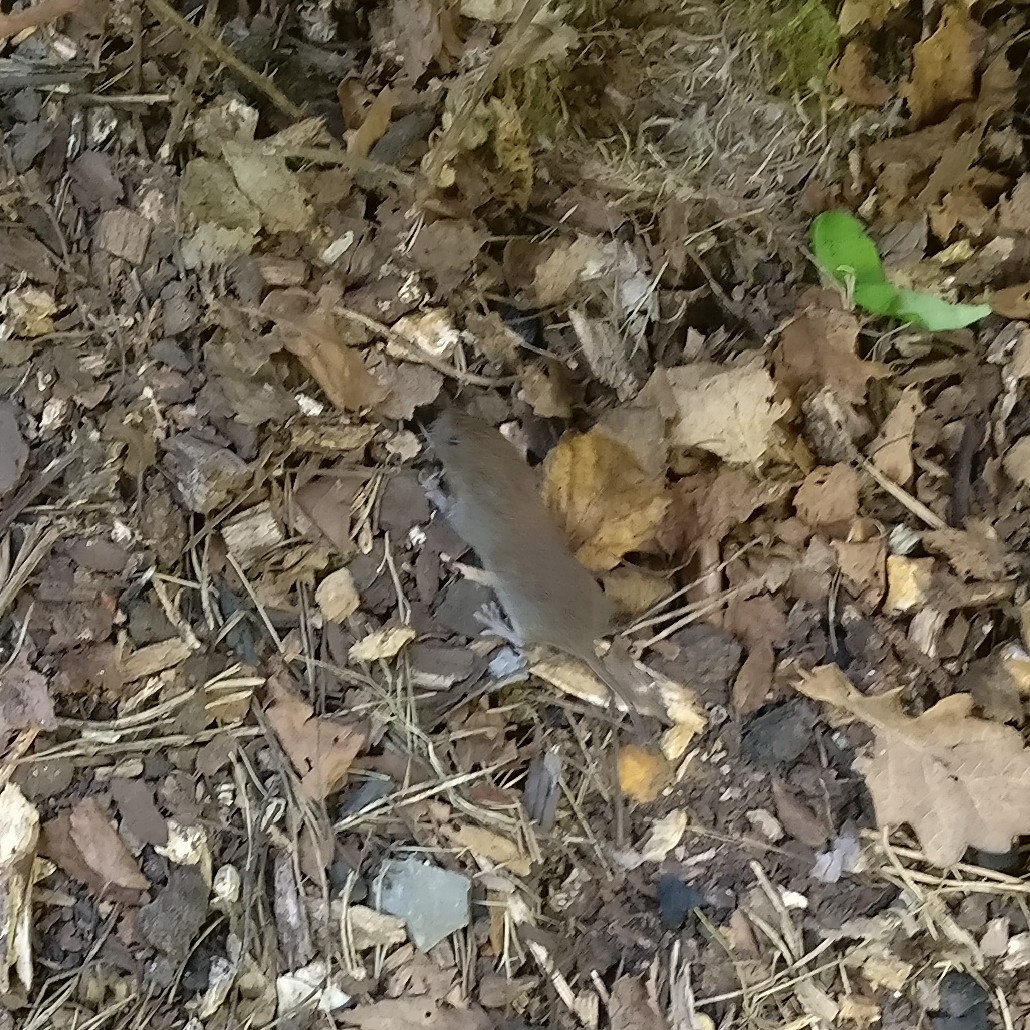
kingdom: Animalia
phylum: Chordata
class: Mammalia
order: Rodentia
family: Cricetidae
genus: Myodes
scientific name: Myodes glareolus
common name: Bank vole
